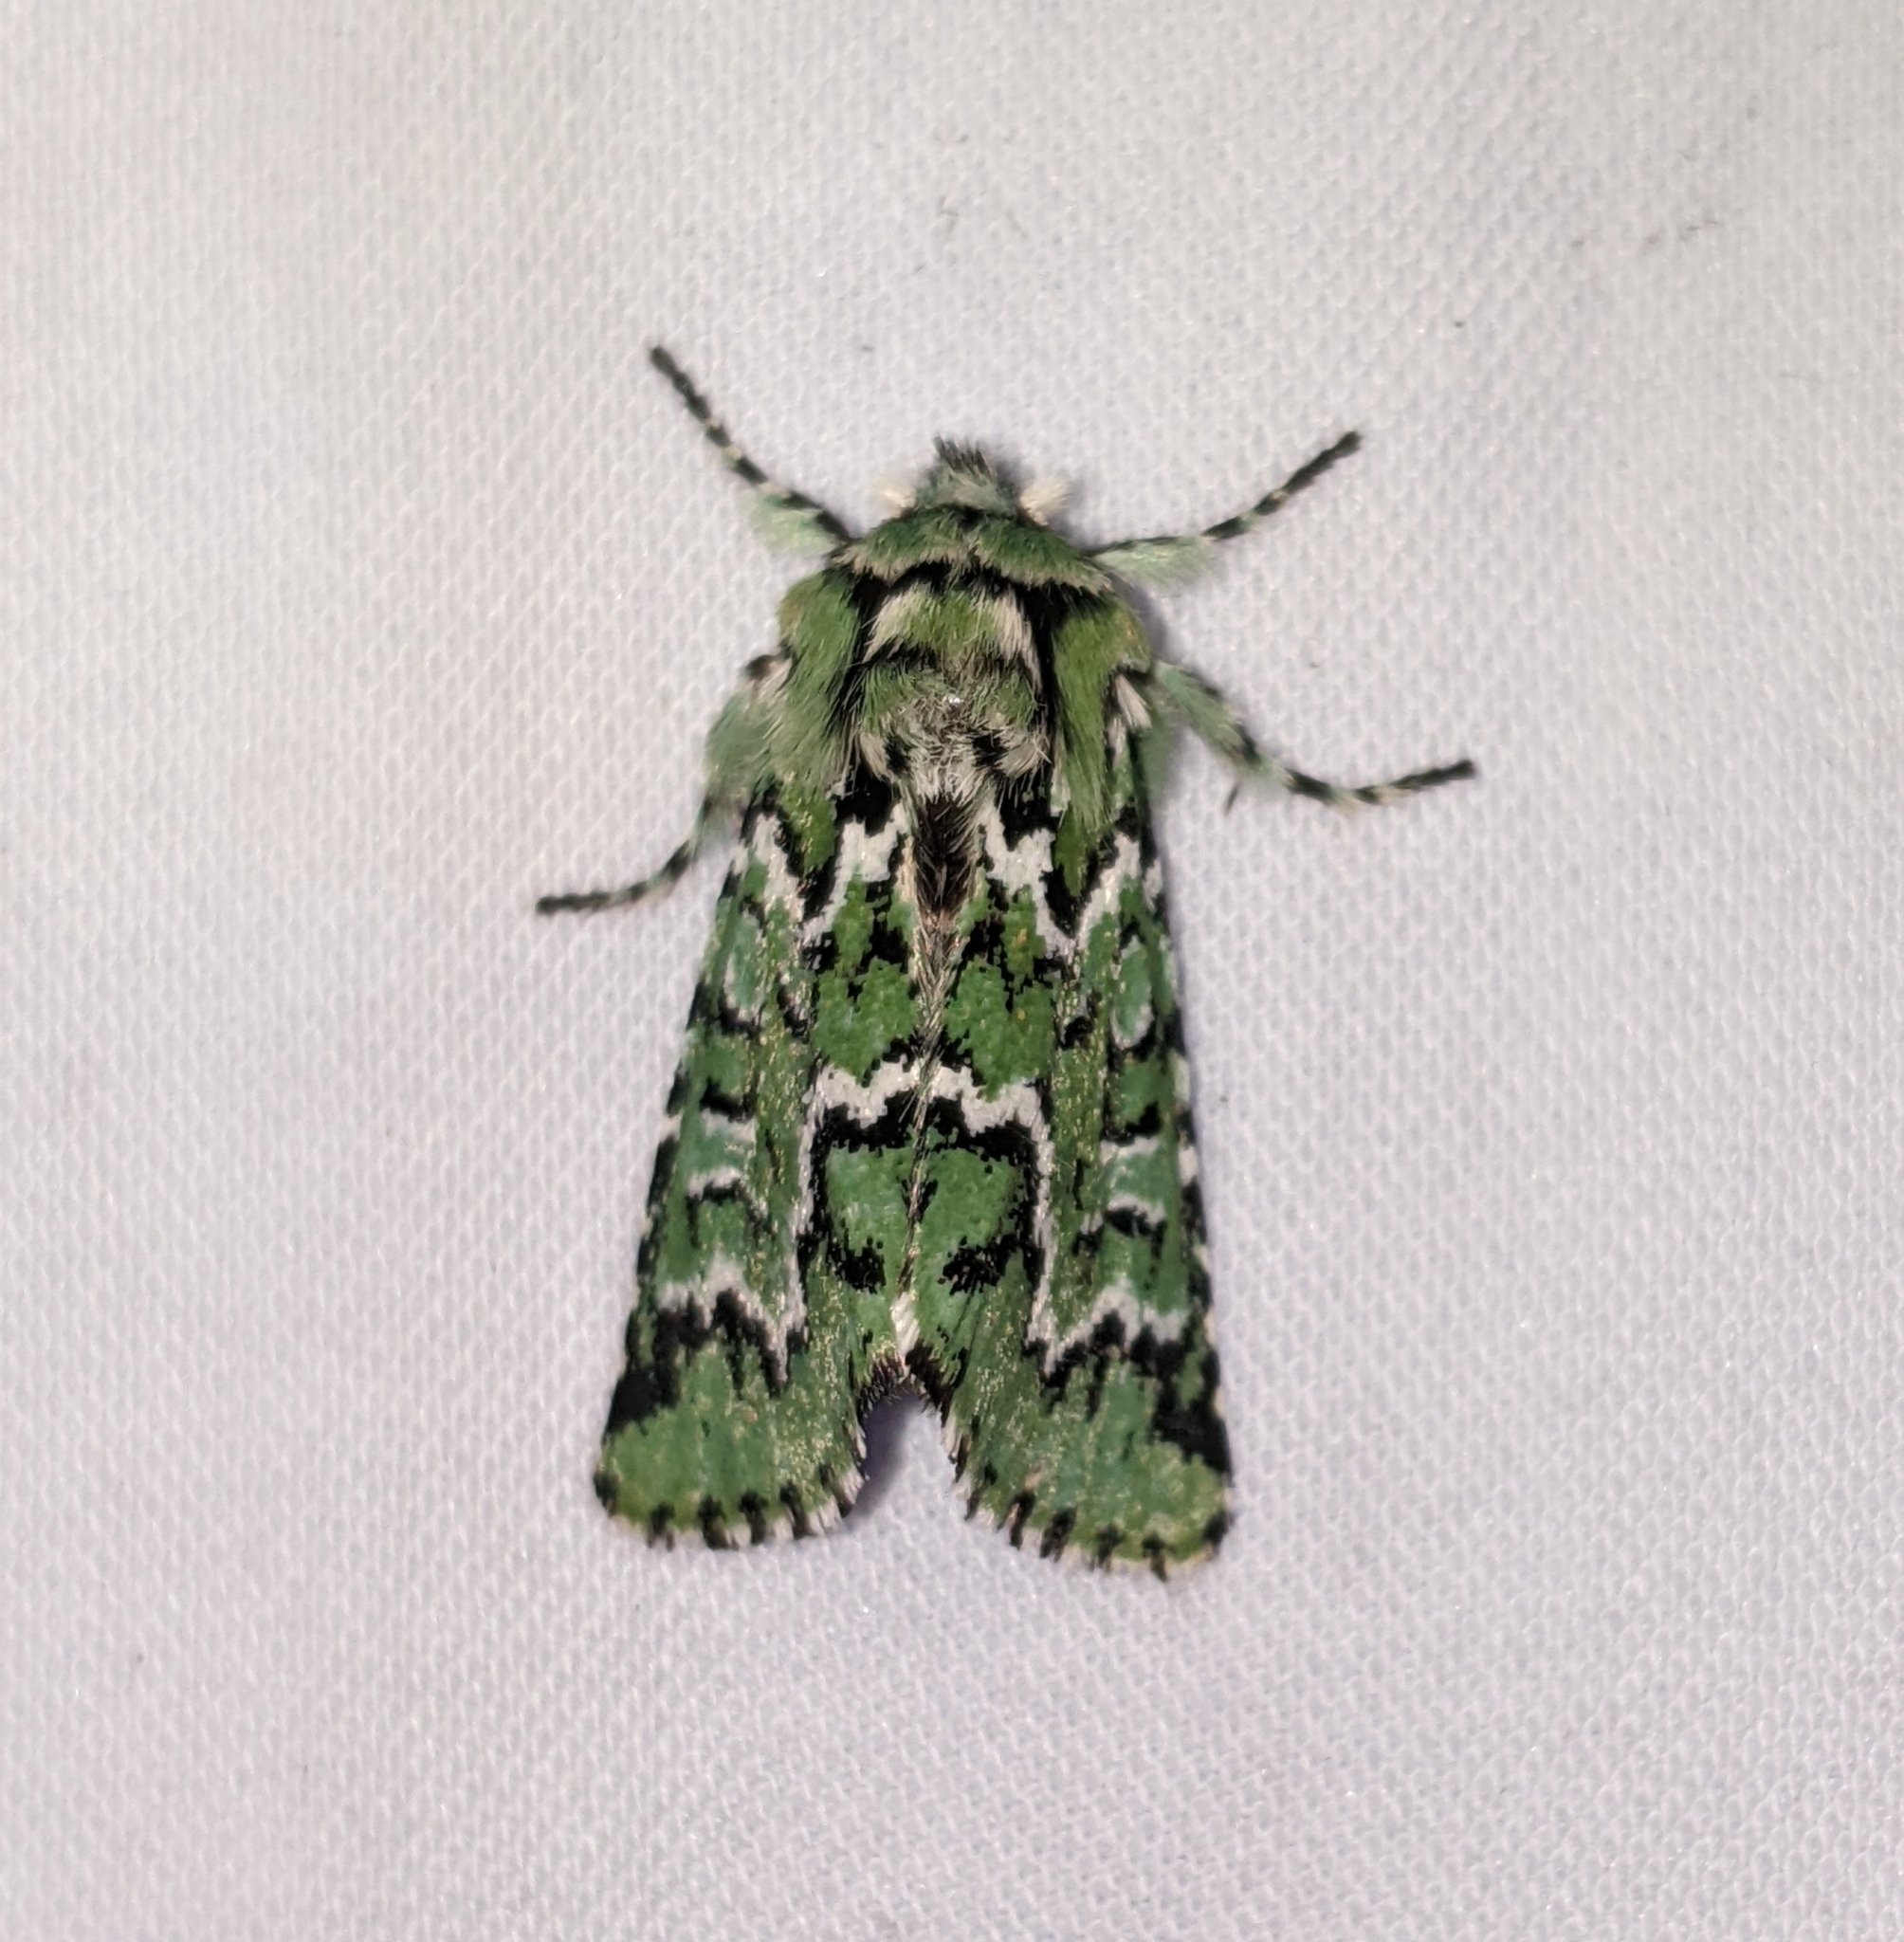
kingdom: Animalia
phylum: Arthropoda
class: Insecta
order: Lepidoptera
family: Noctuidae
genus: Feralia
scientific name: Feralia deceptiva
